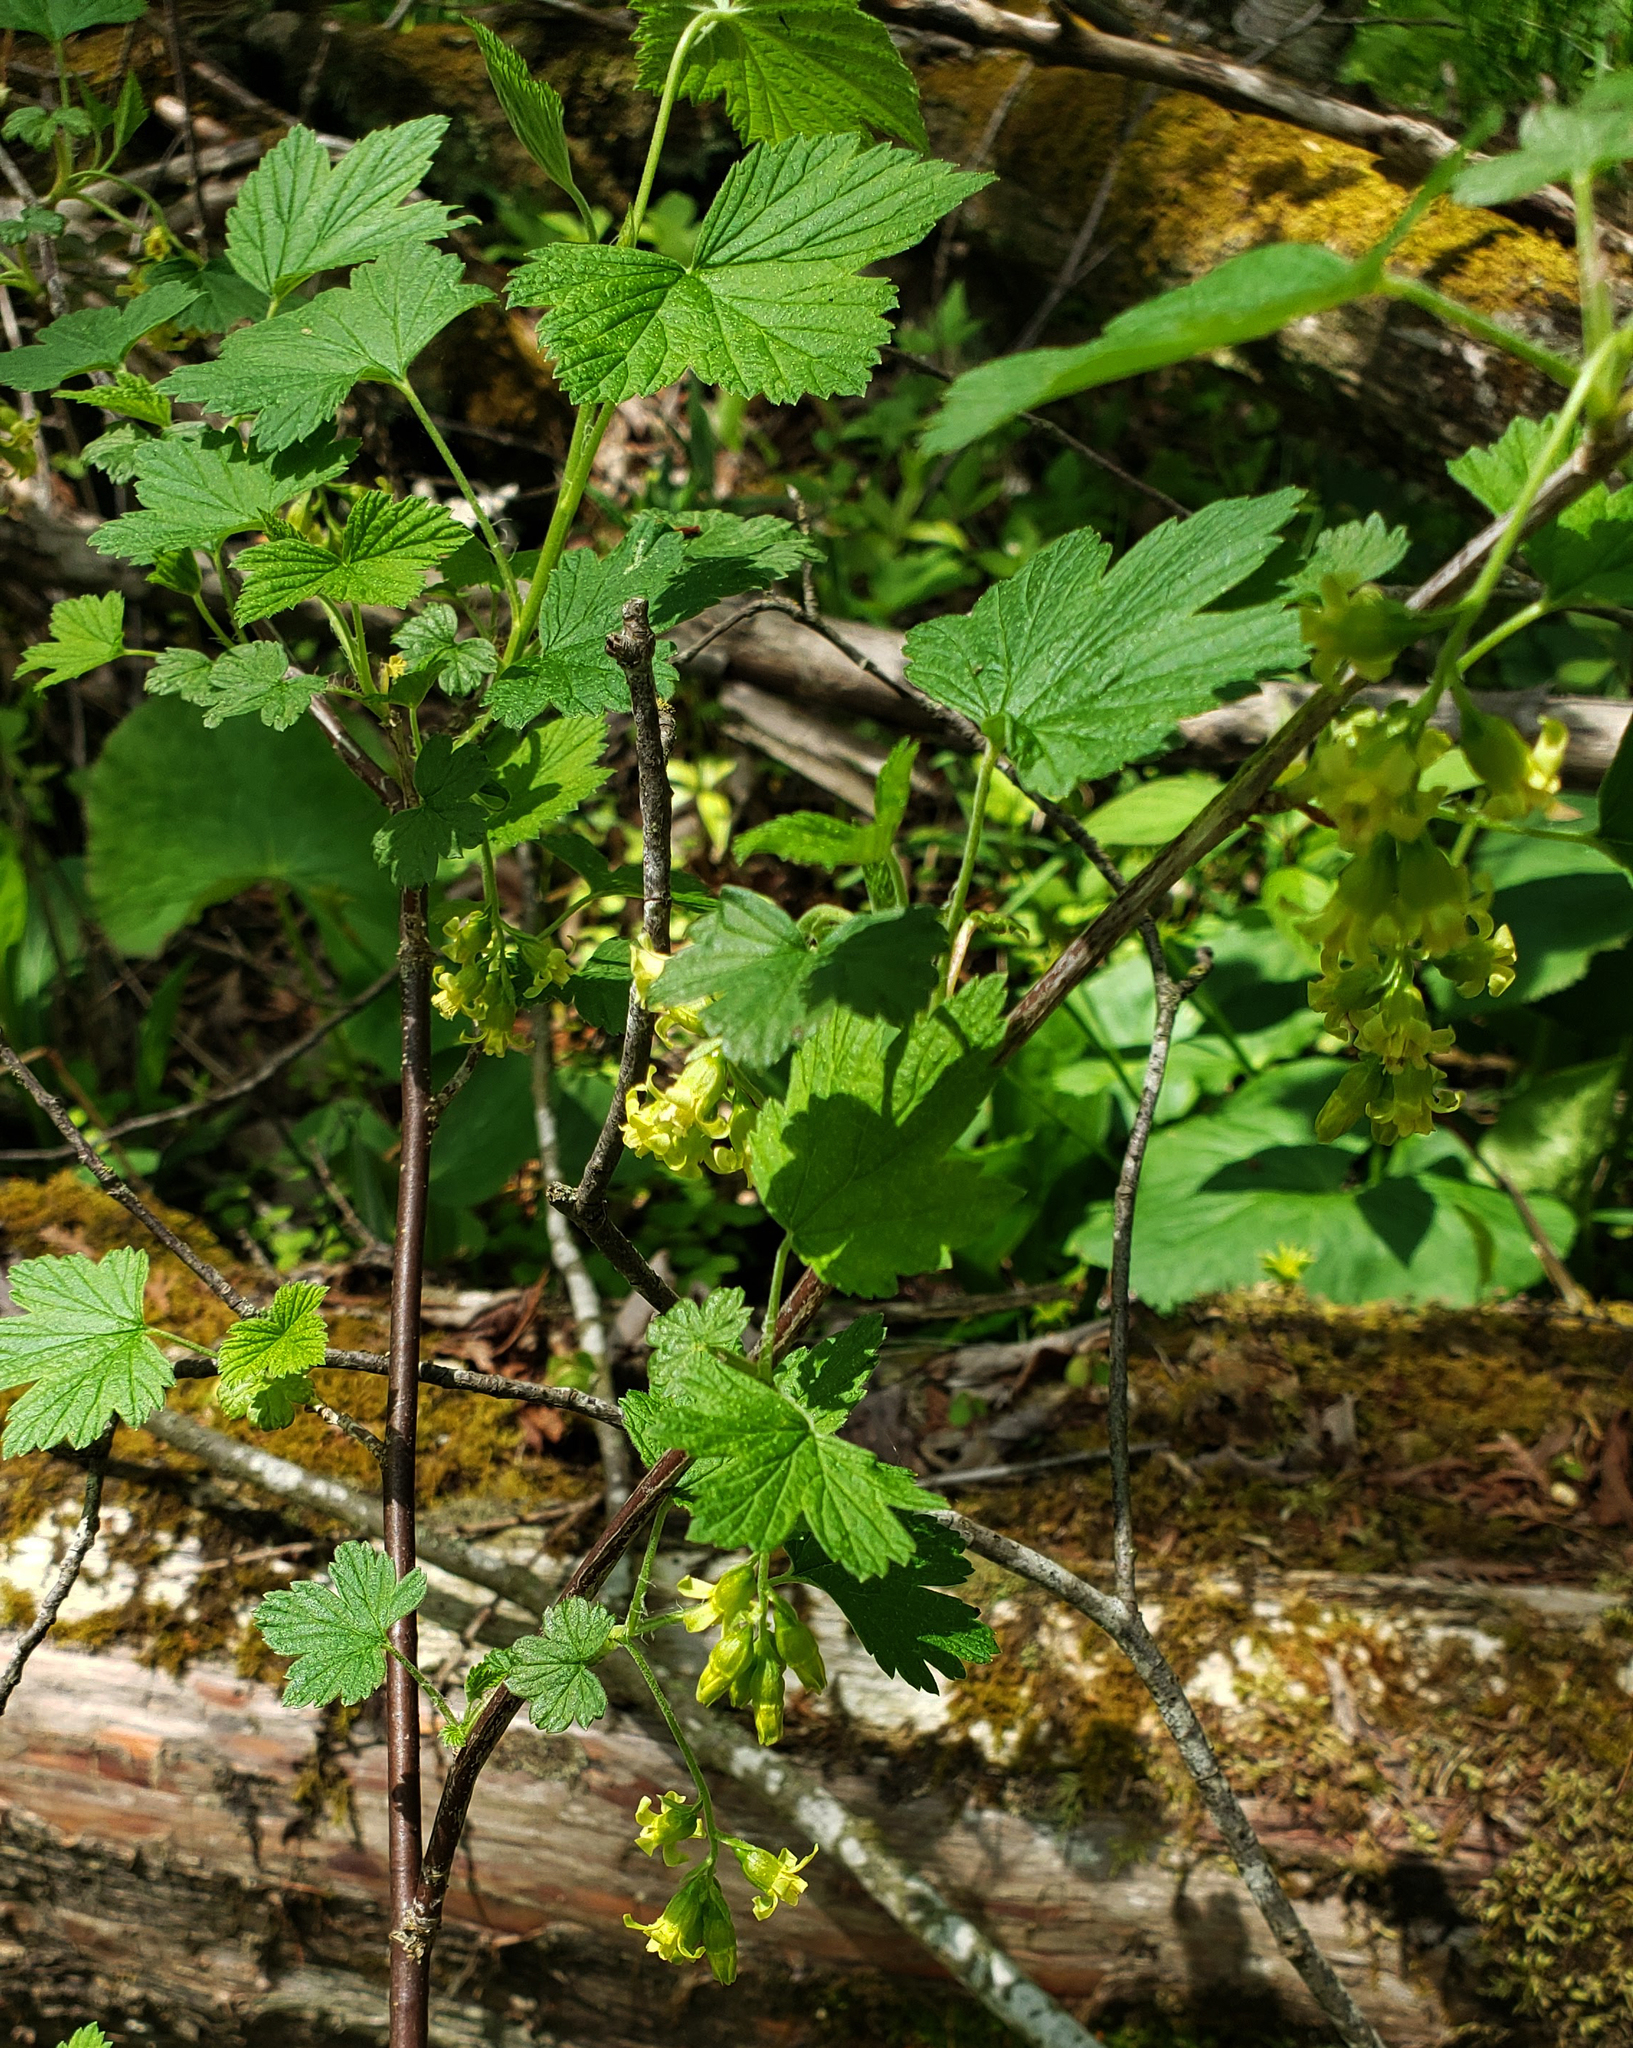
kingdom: Plantae
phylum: Tracheophyta
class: Magnoliopsida
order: Saxifragales
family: Grossulariaceae
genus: Ribes
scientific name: Ribes americanum
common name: American black currant
